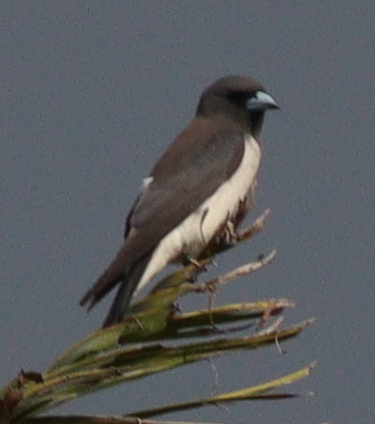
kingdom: Animalia
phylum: Chordata
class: Aves
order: Passeriformes
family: Artamidae
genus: Artamus
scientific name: Artamus leucoryn
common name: White-breasted woodswallow
